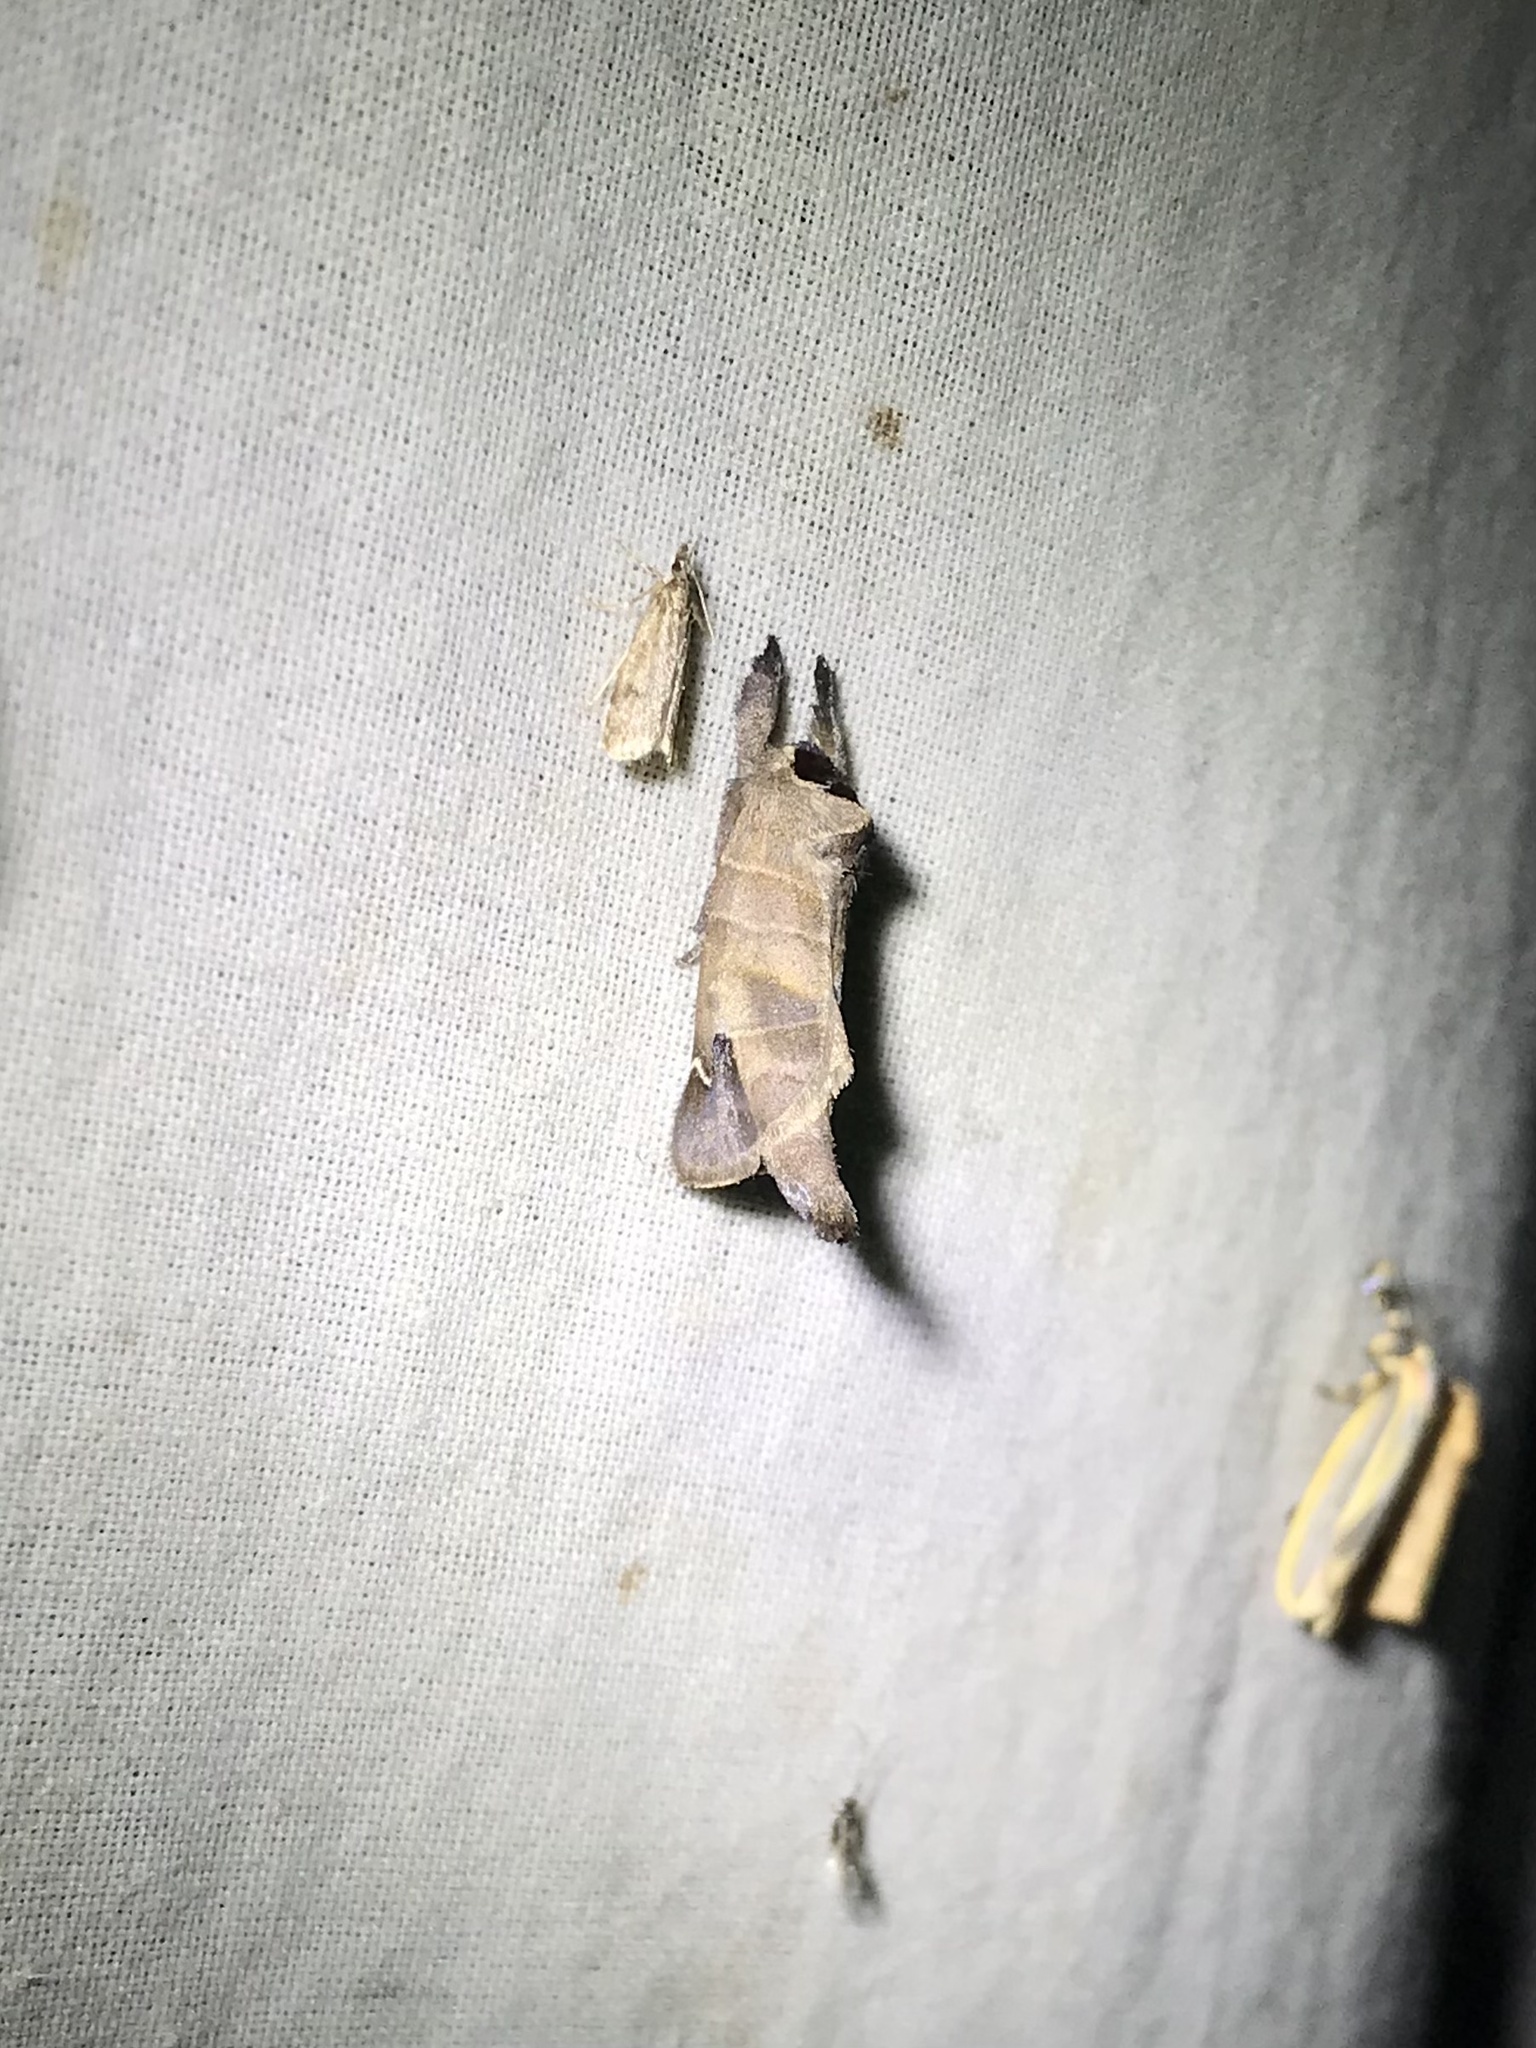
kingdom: Animalia
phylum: Arthropoda
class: Insecta
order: Lepidoptera
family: Notodontidae
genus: Clostera
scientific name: Clostera albosigma
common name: Sigmoid prominent
